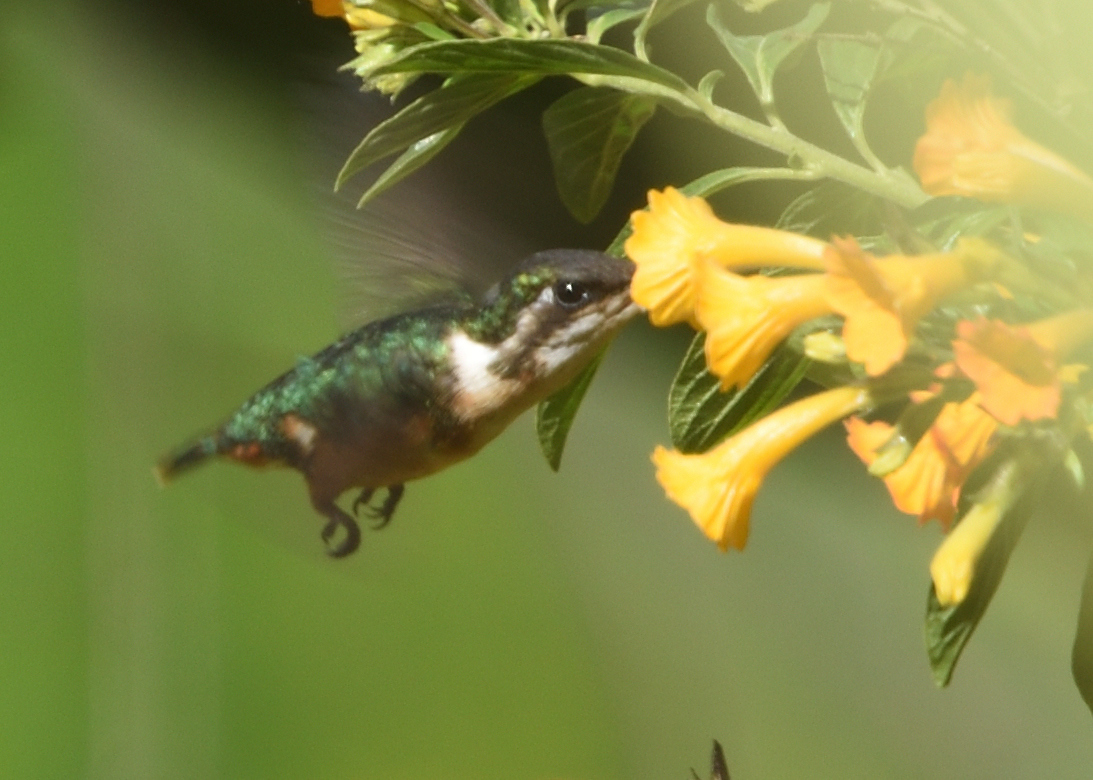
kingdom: Animalia
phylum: Chordata
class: Aves
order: Apodiformes
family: Trochilidae
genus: Chaetocercus
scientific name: Chaetocercus astreans
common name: Santa marta woodstar
